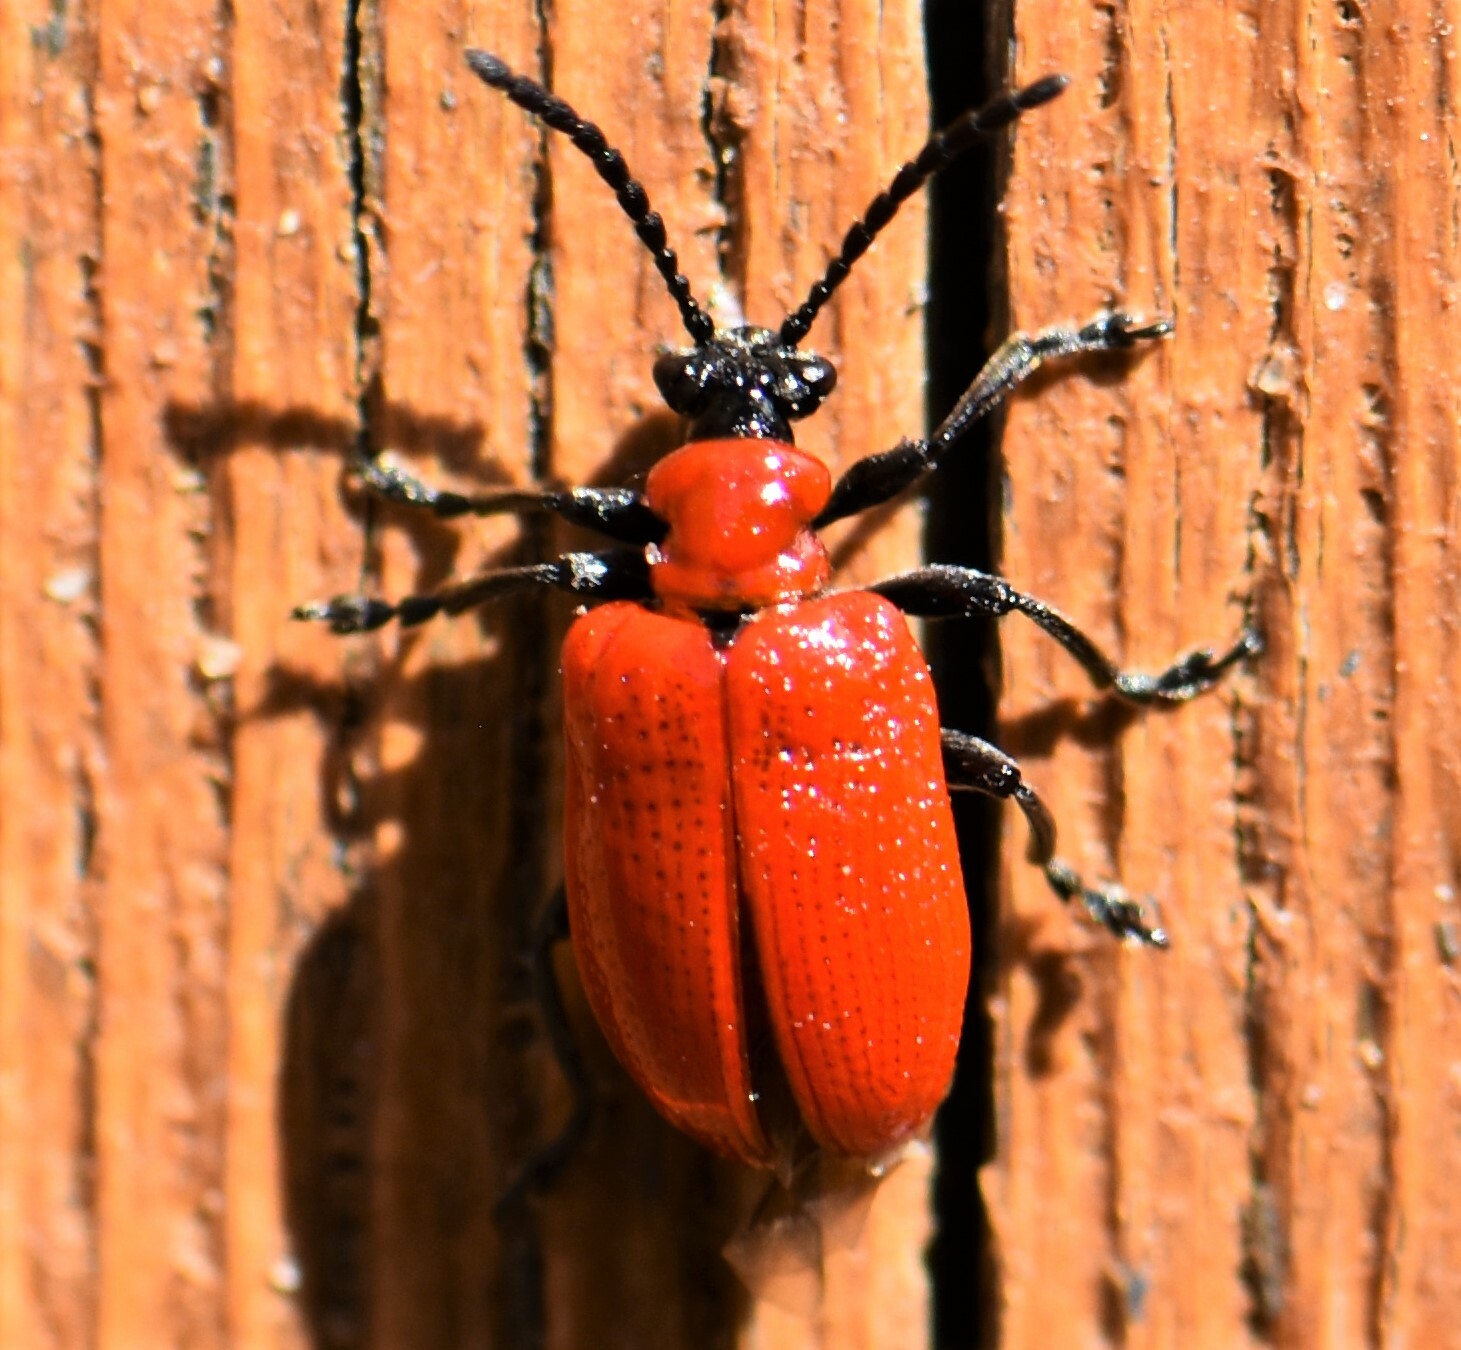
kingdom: Animalia
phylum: Arthropoda
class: Insecta
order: Coleoptera
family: Chrysomelidae
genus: Lilioceris
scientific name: Lilioceris lilii
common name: Lily beetle
